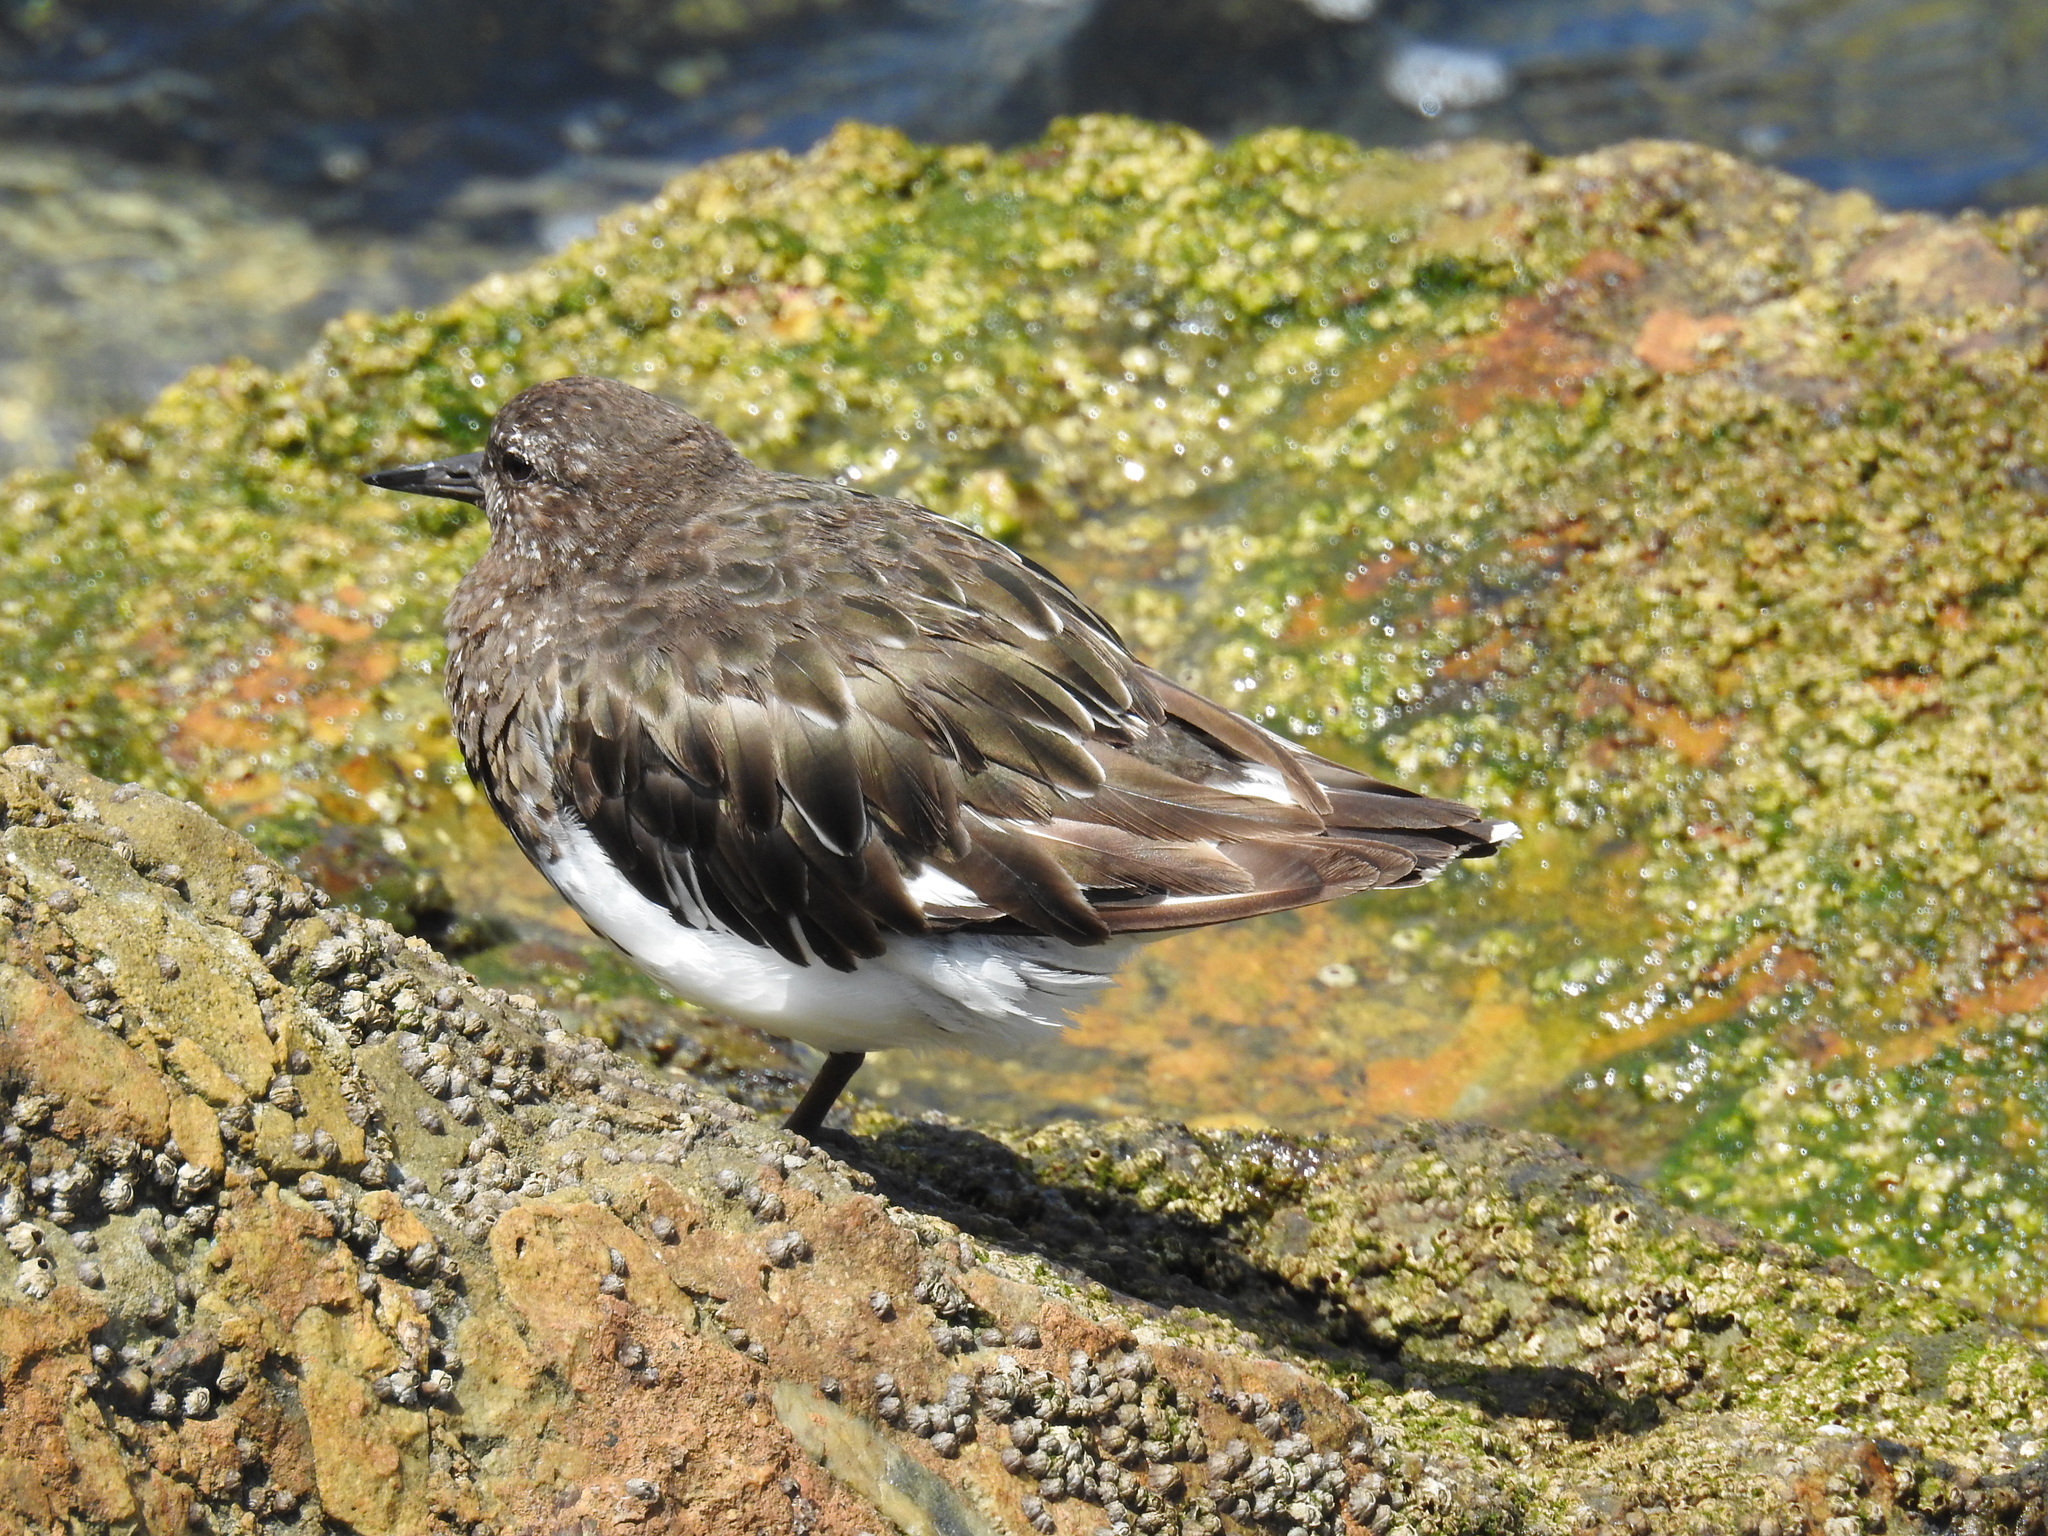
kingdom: Animalia
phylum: Chordata
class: Aves
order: Charadriiformes
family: Scolopacidae
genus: Arenaria
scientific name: Arenaria melanocephala
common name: Black turnstone
